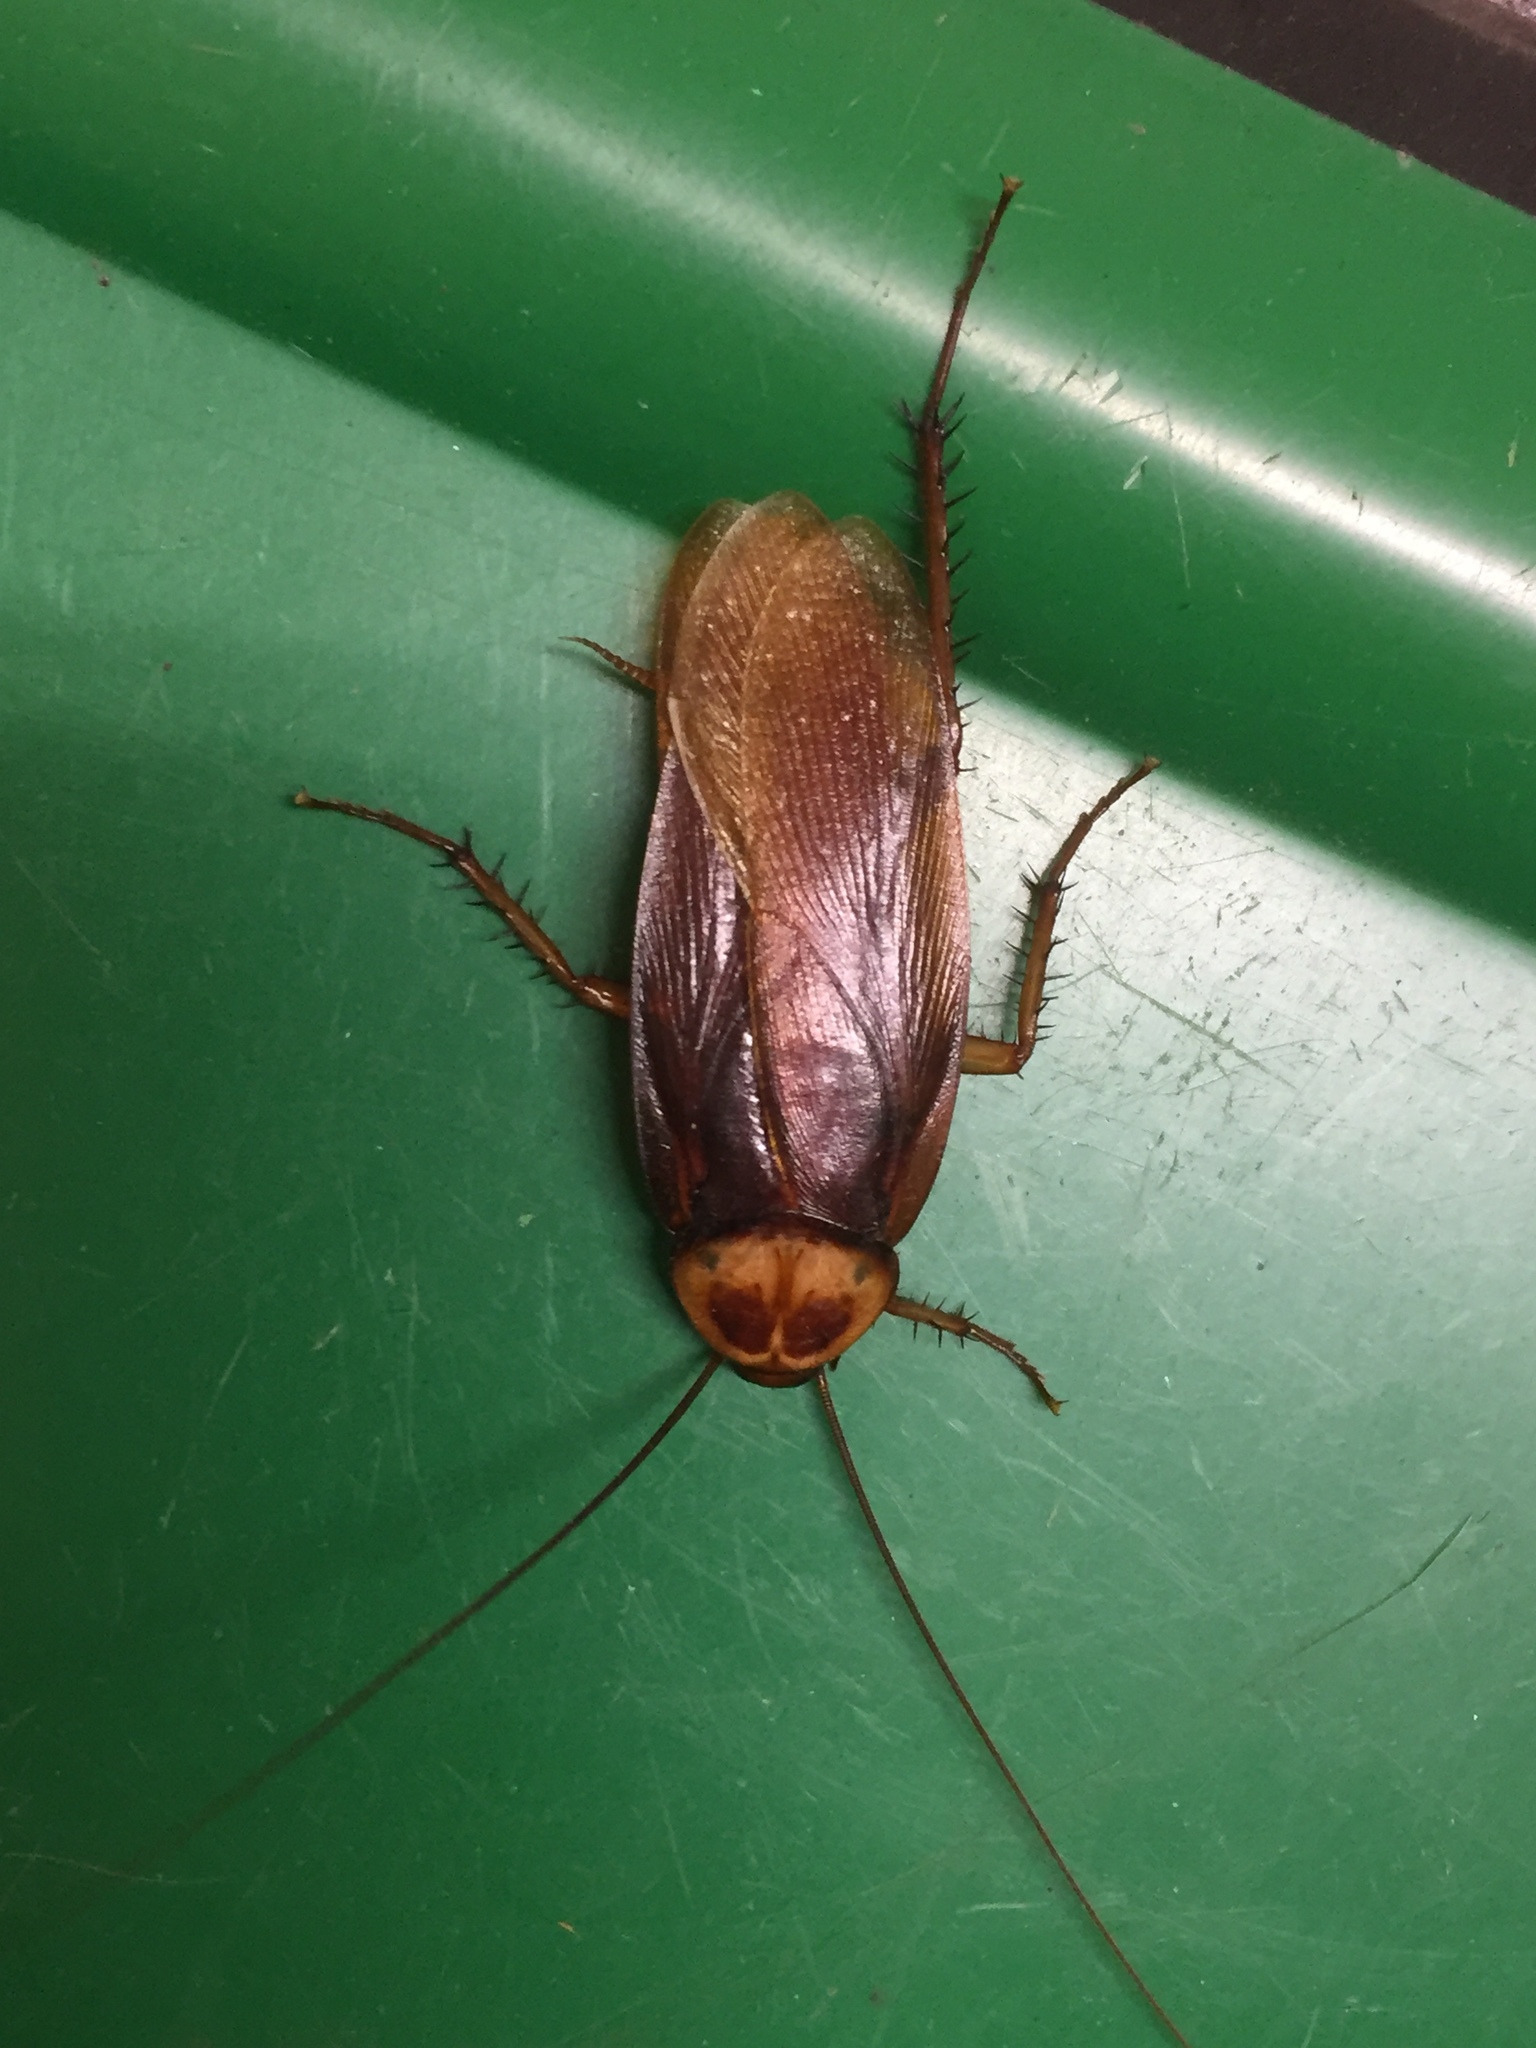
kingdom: Animalia
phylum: Arthropoda
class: Insecta
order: Blattodea
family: Blattidae
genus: Periplaneta
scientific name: Periplaneta americana
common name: American cockroach
